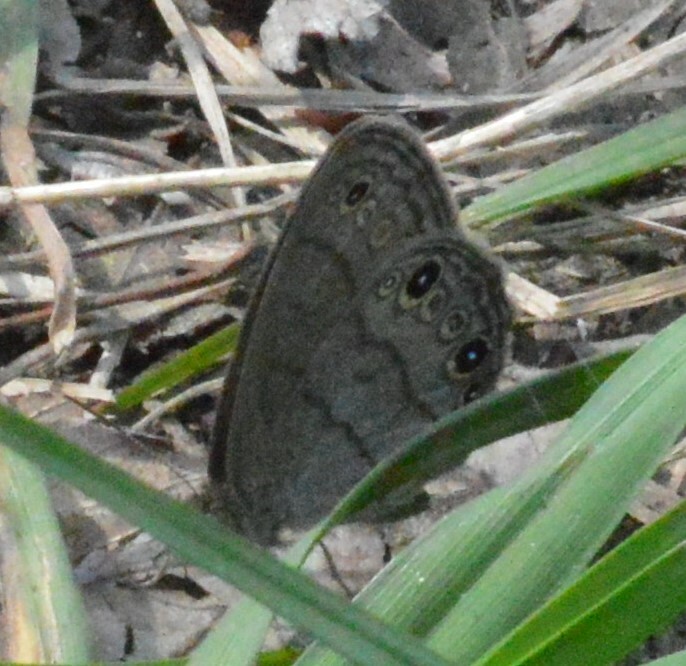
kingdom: Animalia
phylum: Arthropoda
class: Insecta
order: Lepidoptera
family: Nymphalidae
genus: Hermeuptychia
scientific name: Hermeuptychia hermes
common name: Hermes satyr
